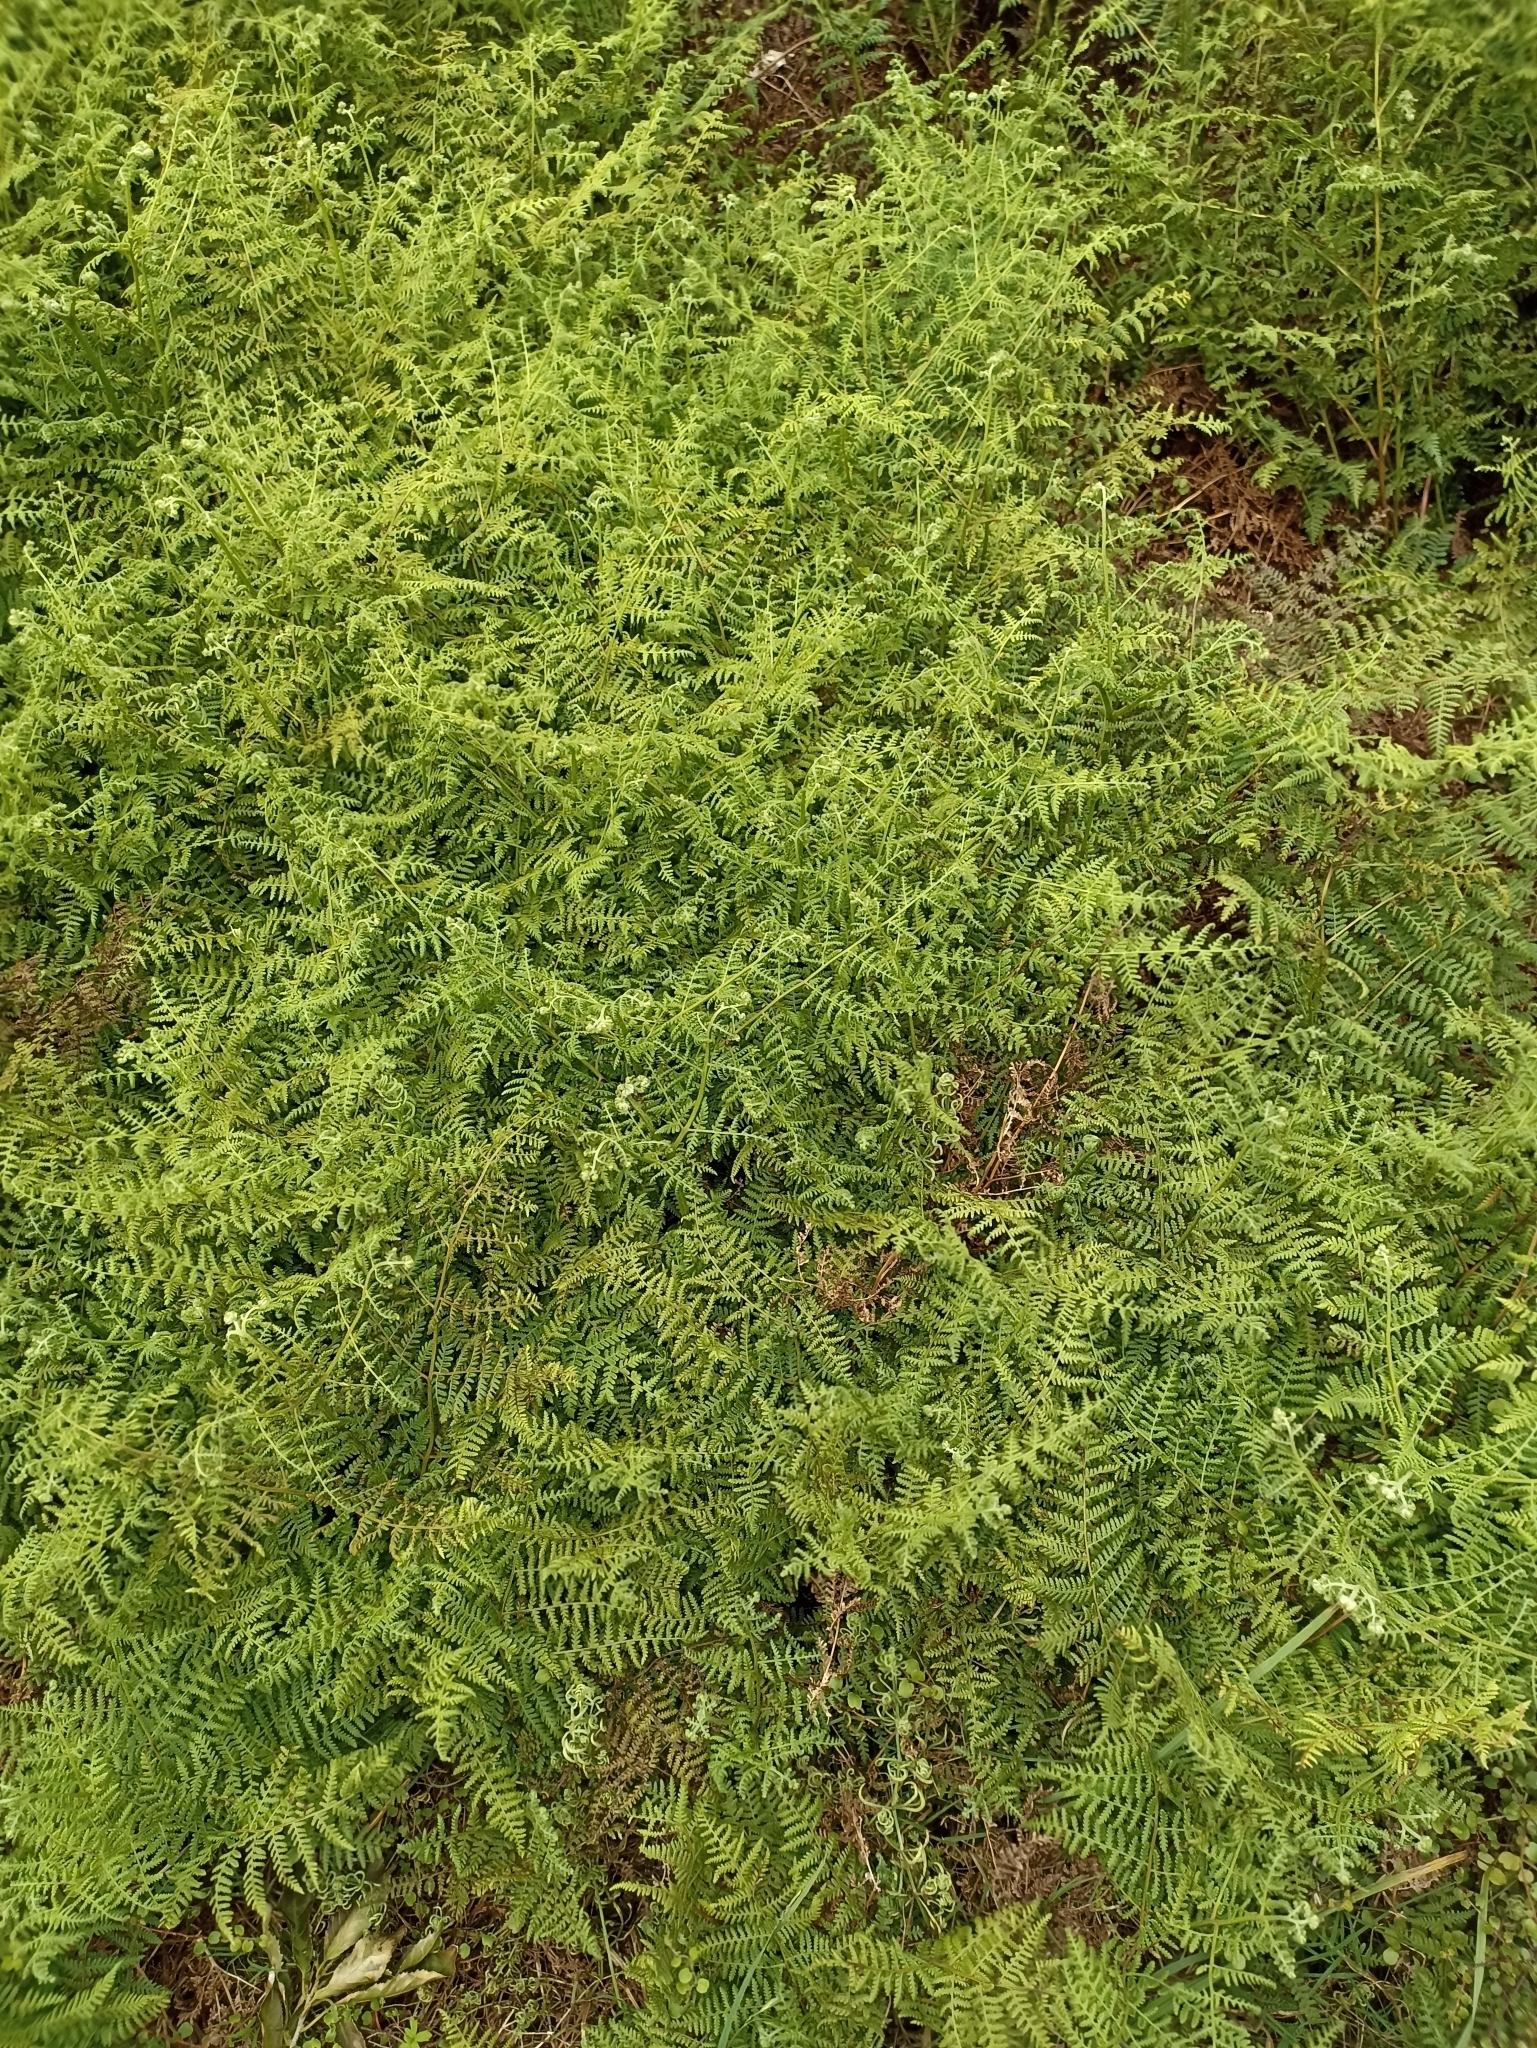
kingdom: Plantae
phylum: Tracheophyta
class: Polypodiopsida
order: Polypodiales
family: Dennstaedtiaceae
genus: Hypolepis
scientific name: Hypolepis ambigua
